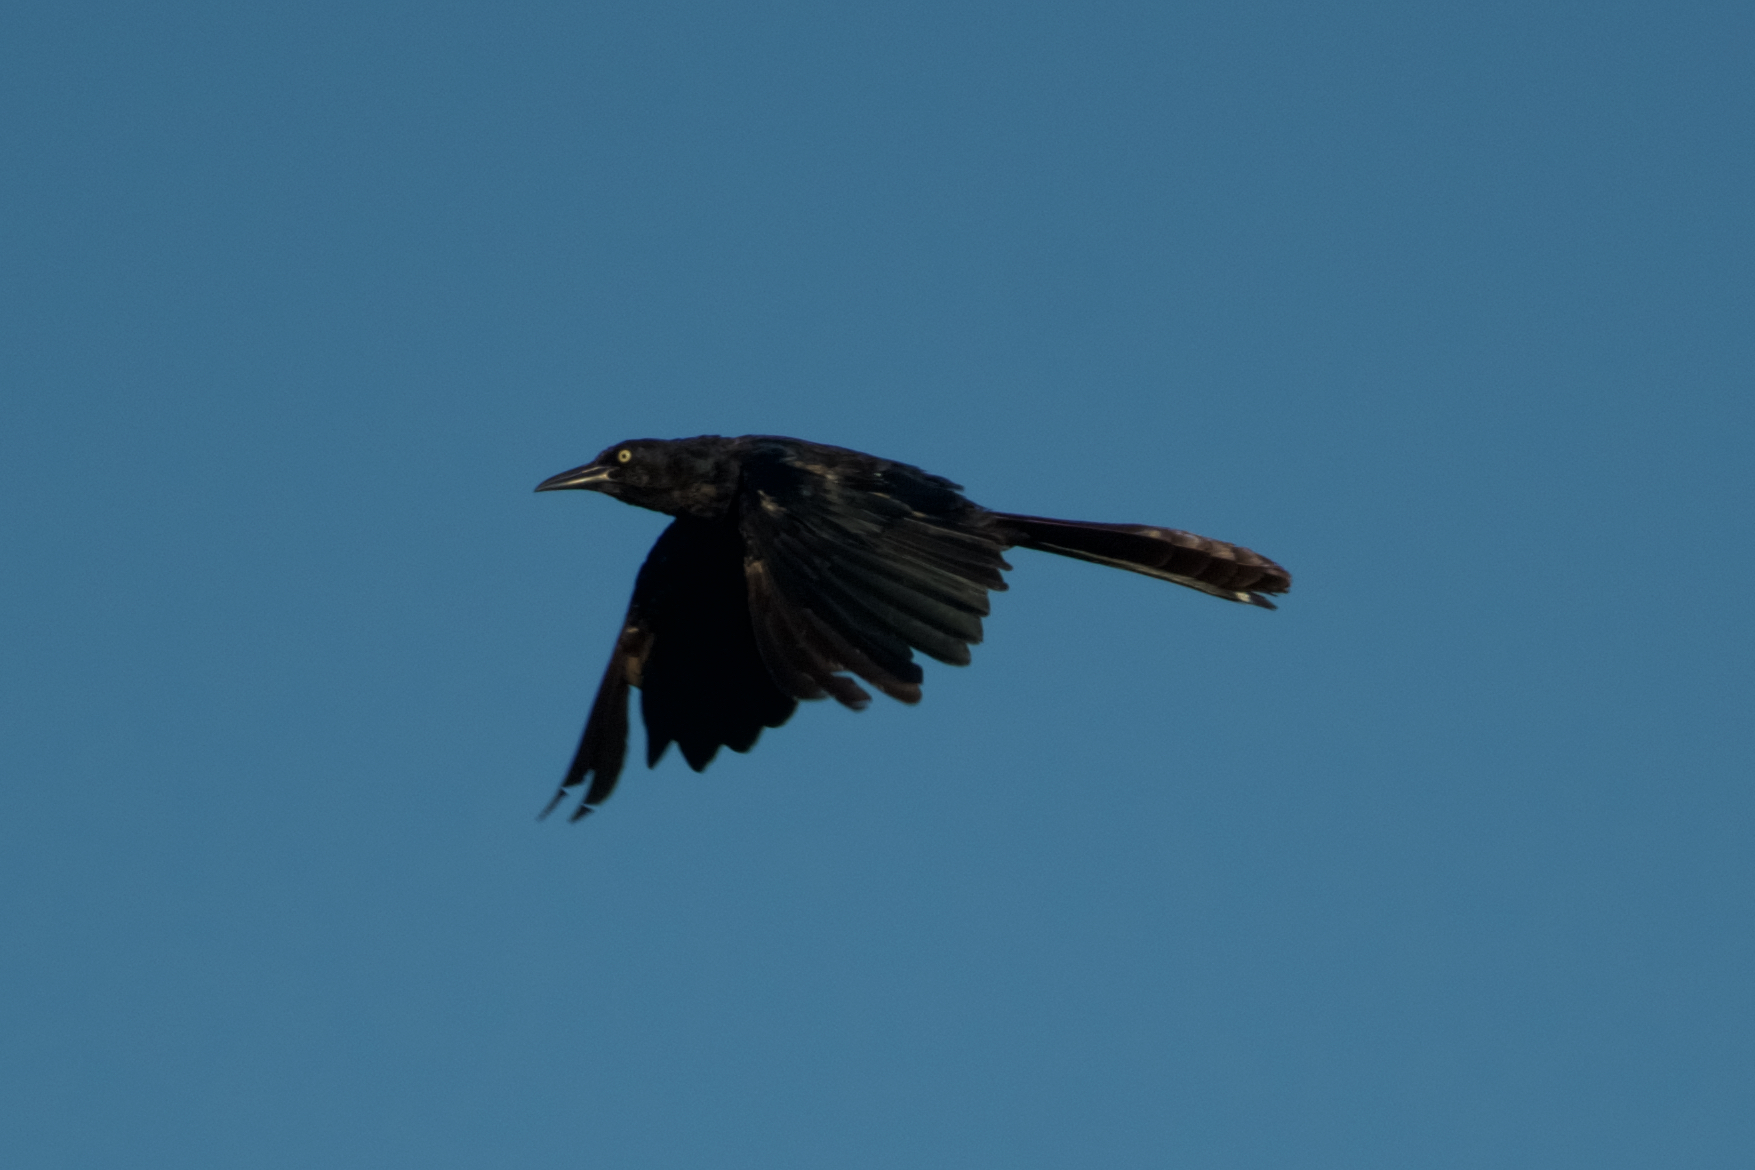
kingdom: Animalia
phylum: Chordata
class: Aves
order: Passeriformes
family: Icteridae
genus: Quiscalus
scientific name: Quiscalus mexicanus
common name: Great-tailed grackle
